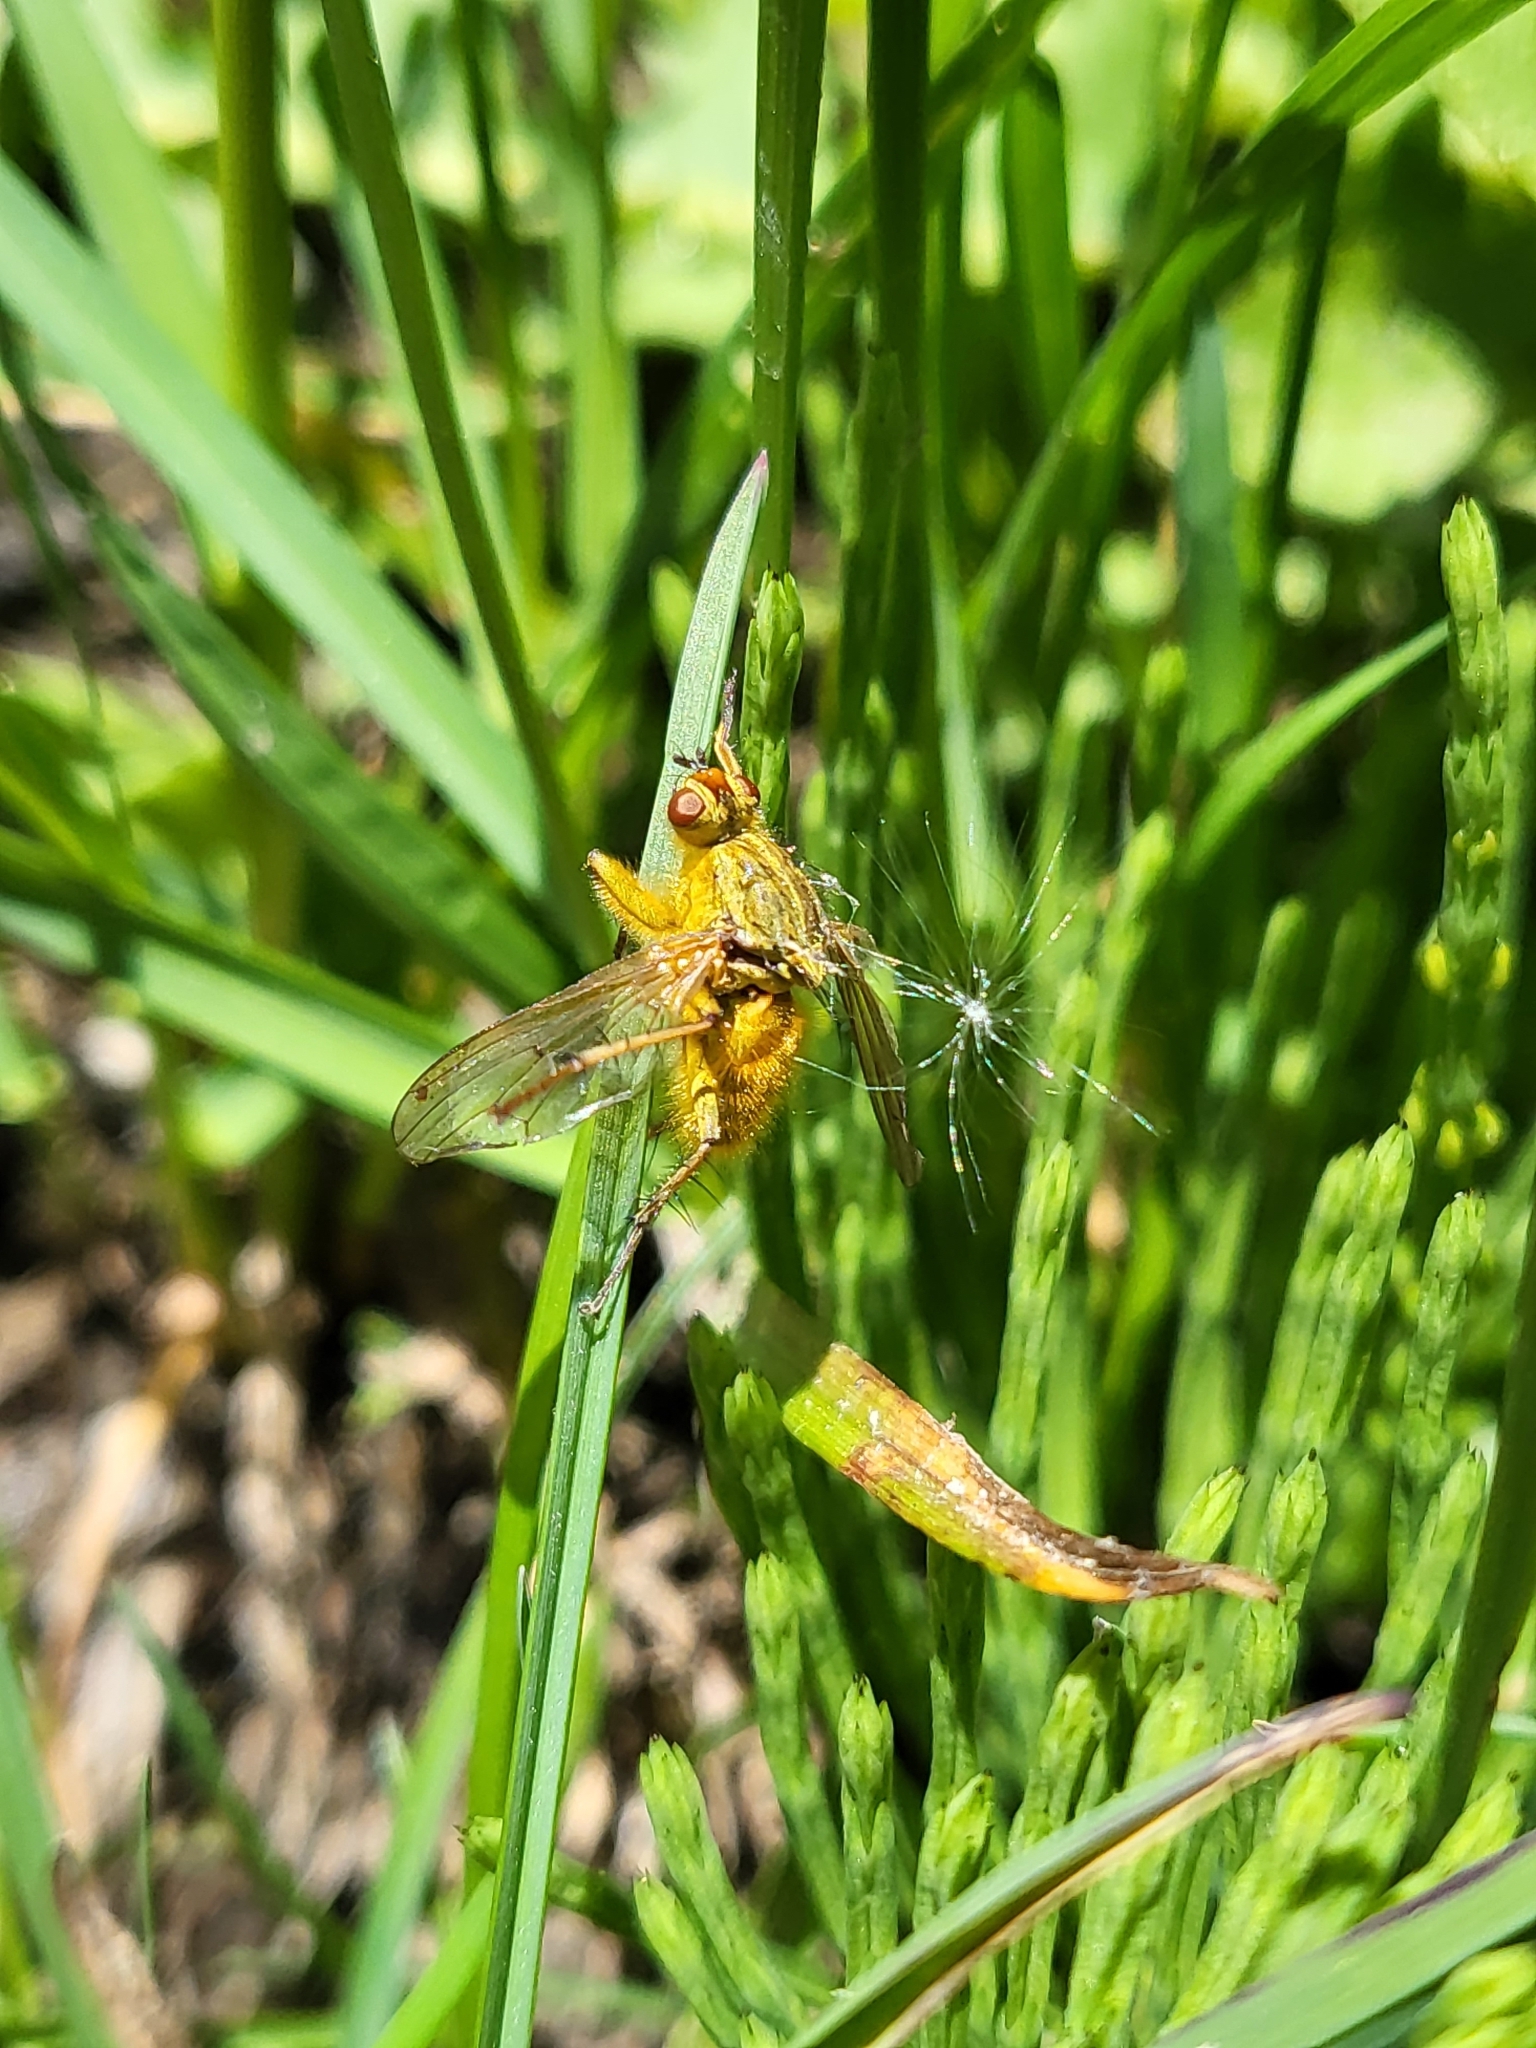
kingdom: Animalia
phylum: Arthropoda
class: Insecta
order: Diptera
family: Scathophagidae
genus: Scathophaga
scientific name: Scathophaga stercoraria
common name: Yellow dung fly
